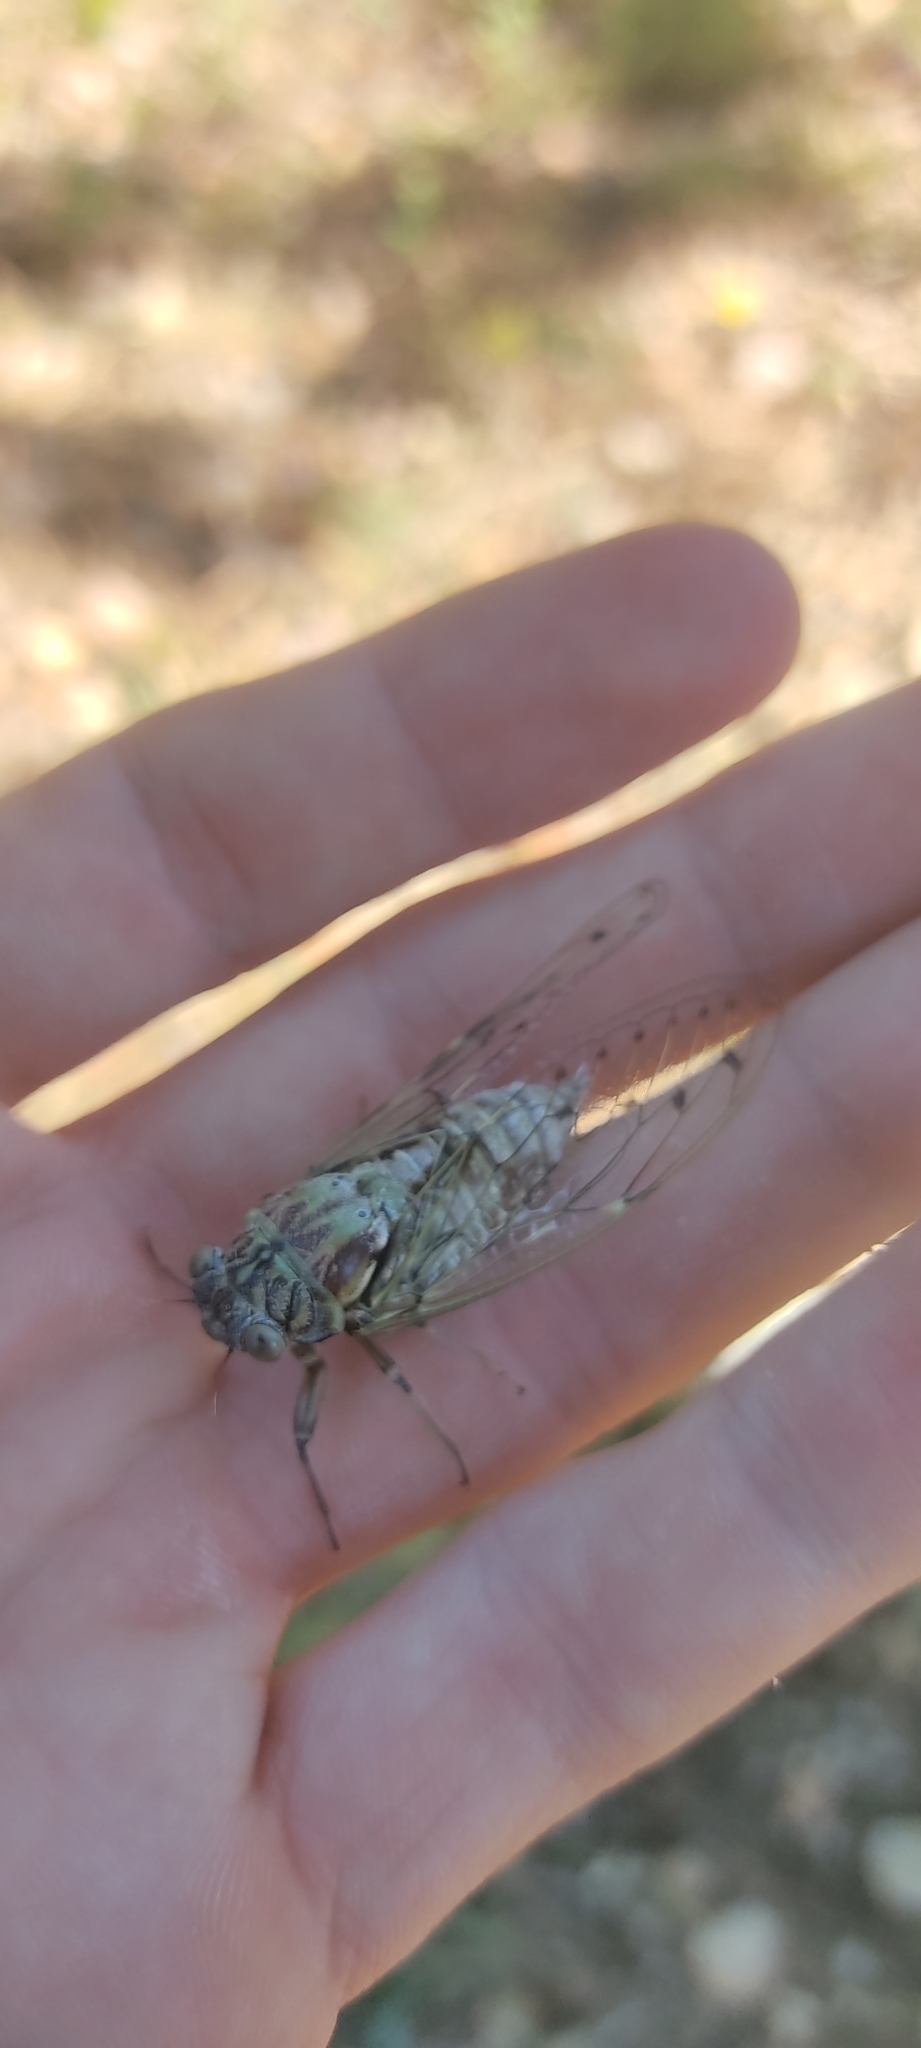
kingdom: Animalia
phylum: Arthropoda
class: Insecta
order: Hemiptera
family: Cicadidae
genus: Cicada
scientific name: Cicada orni
